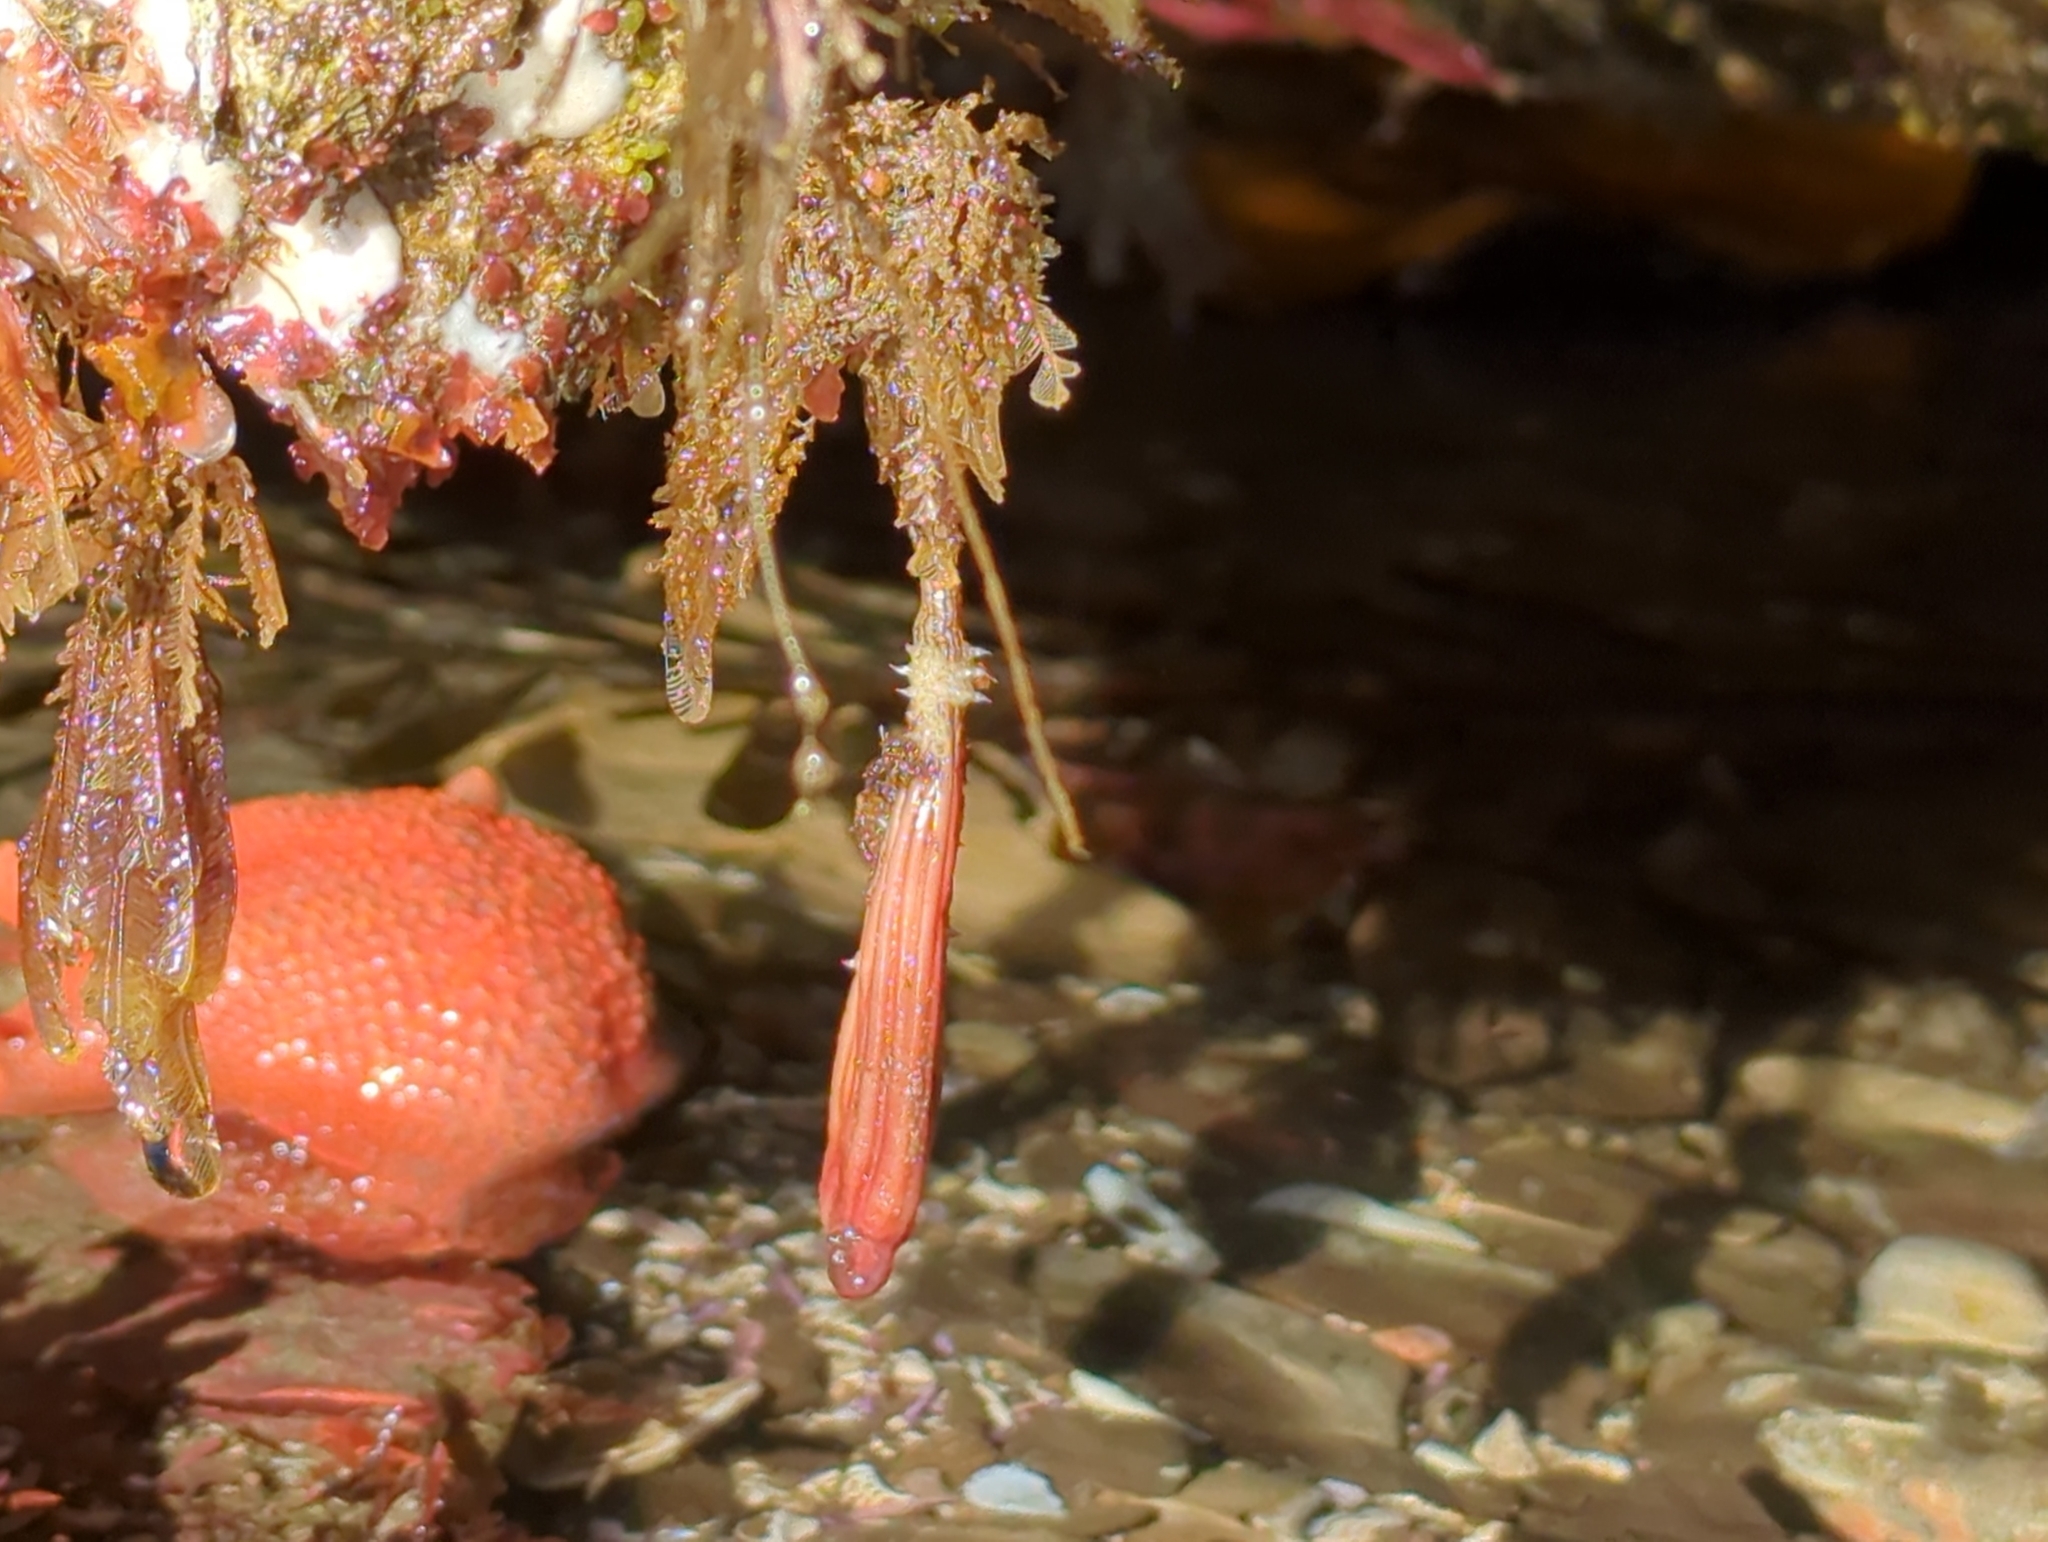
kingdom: Animalia
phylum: Chordata
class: Ascidiacea
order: Stolidobranchia
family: Styelidae
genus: Styela
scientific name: Styela montereyensis
